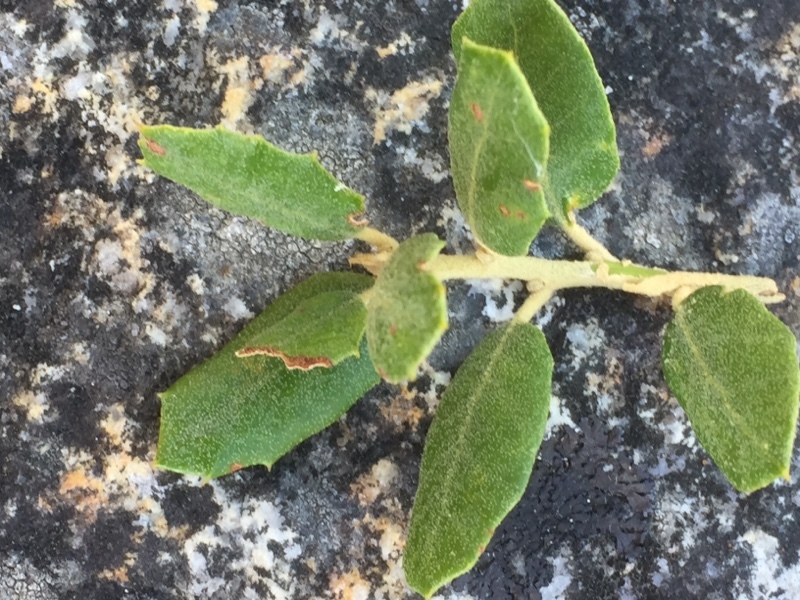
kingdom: Plantae
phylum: Tracheophyta
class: Magnoliopsida
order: Fagales
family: Fagaceae
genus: Quercus
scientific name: Quercus rotundifolia
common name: Holm oak
